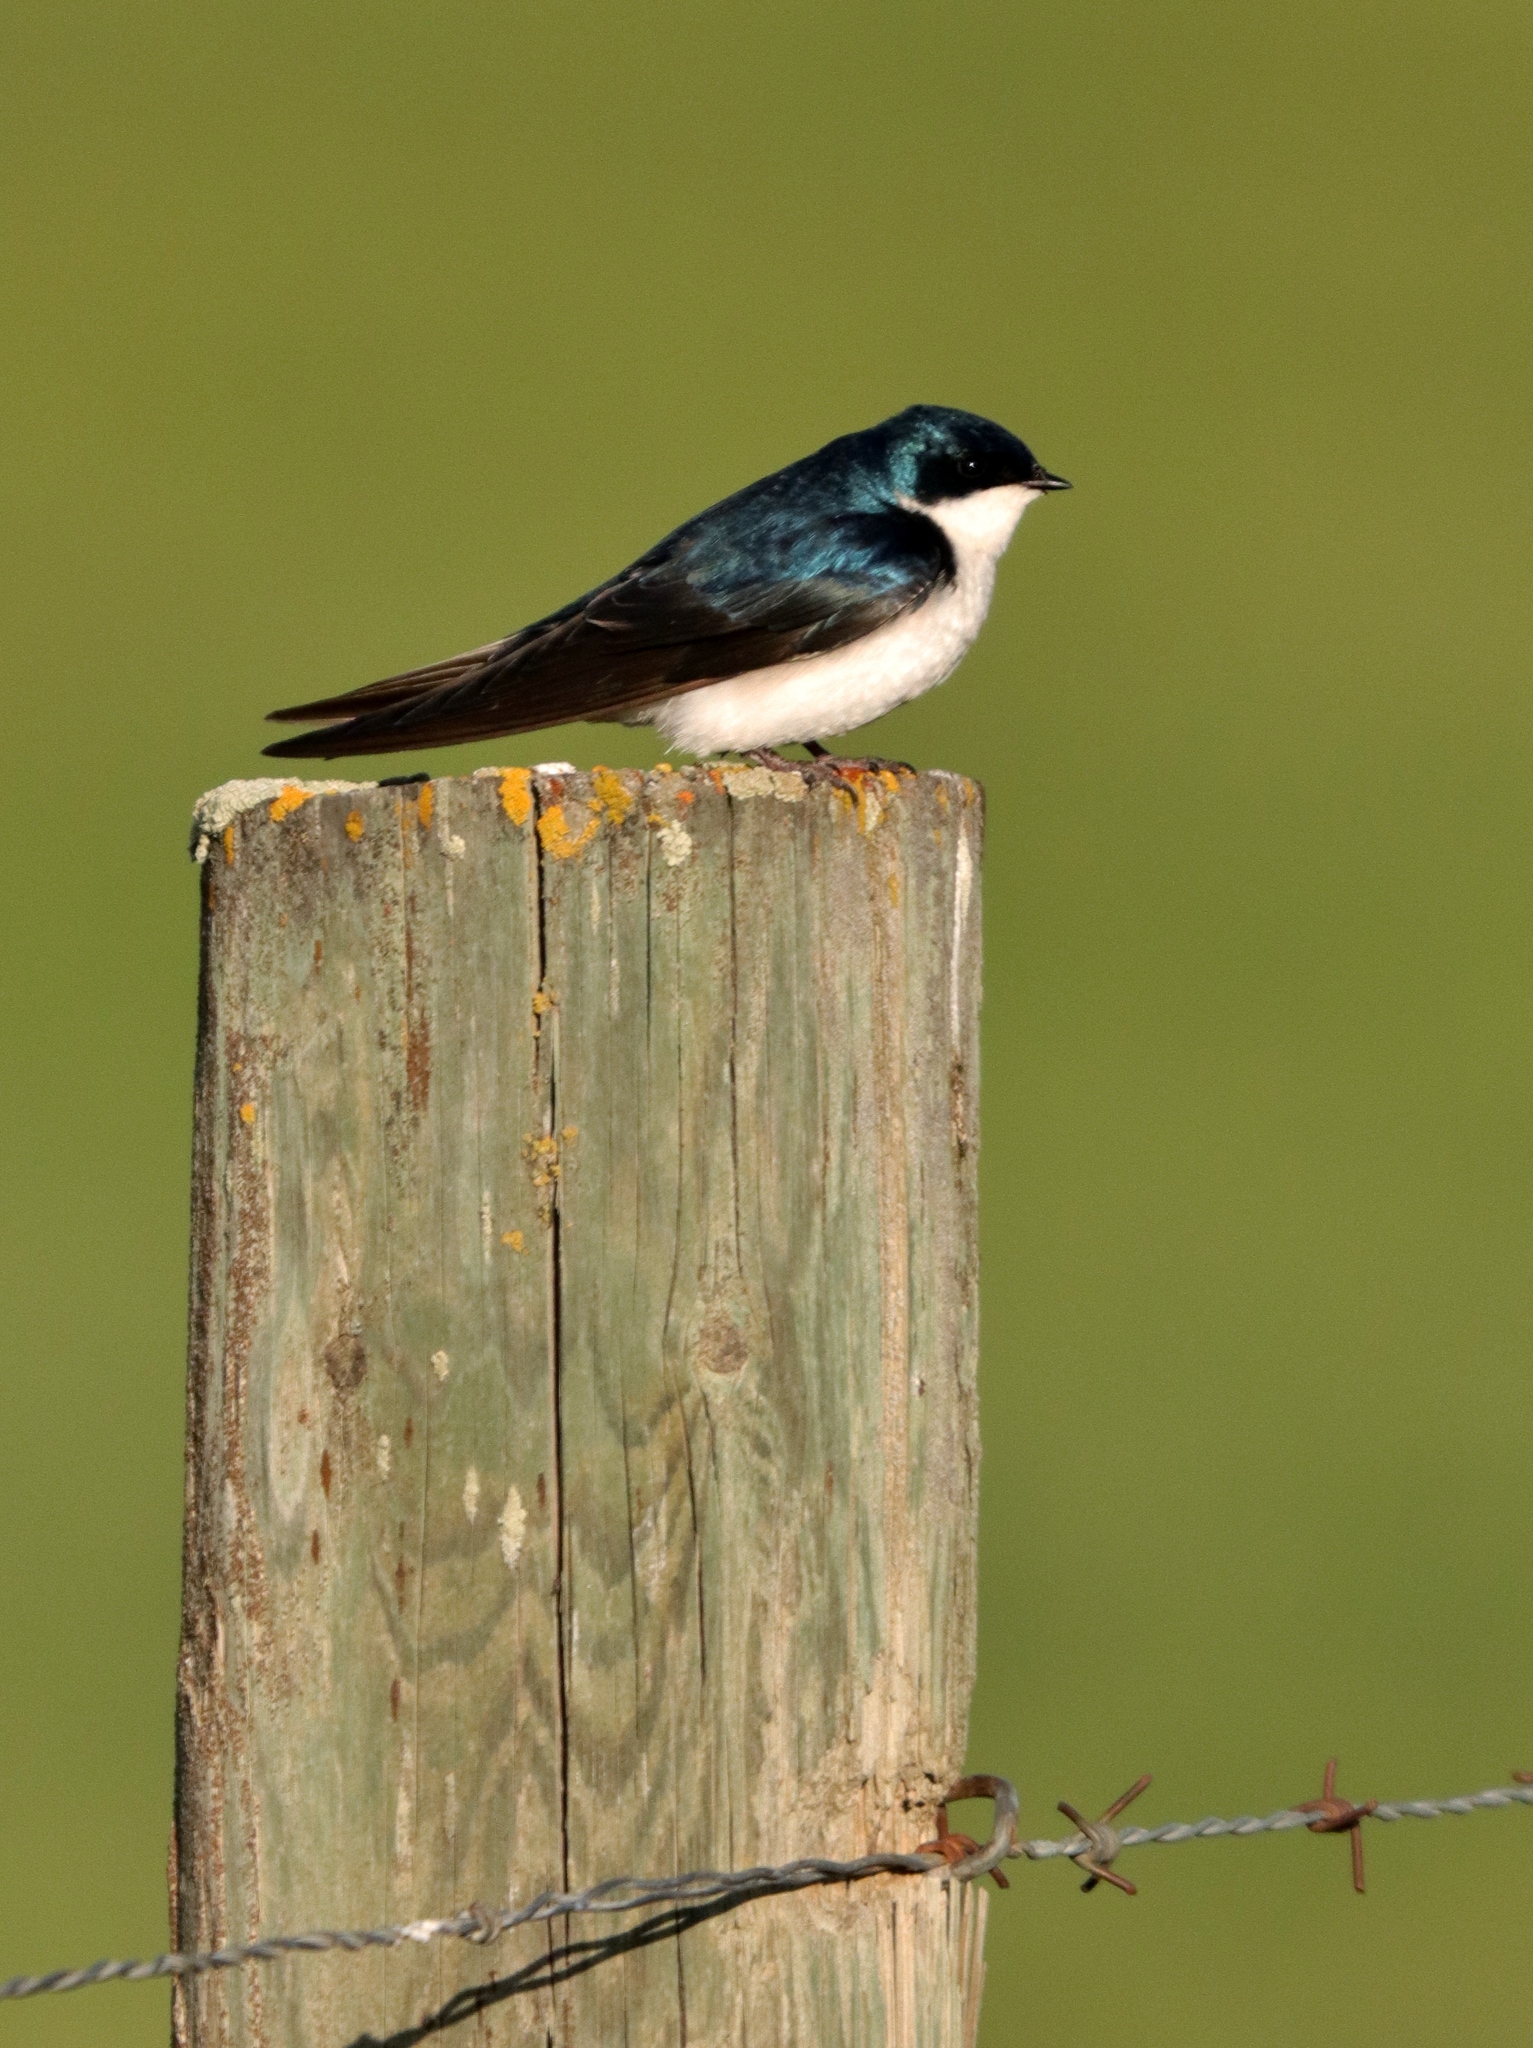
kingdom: Animalia
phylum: Chordata
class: Aves
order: Passeriformes
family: Hirundinidae
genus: Tachycineta
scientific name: Tachycineta bicolor
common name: Tree swallow
